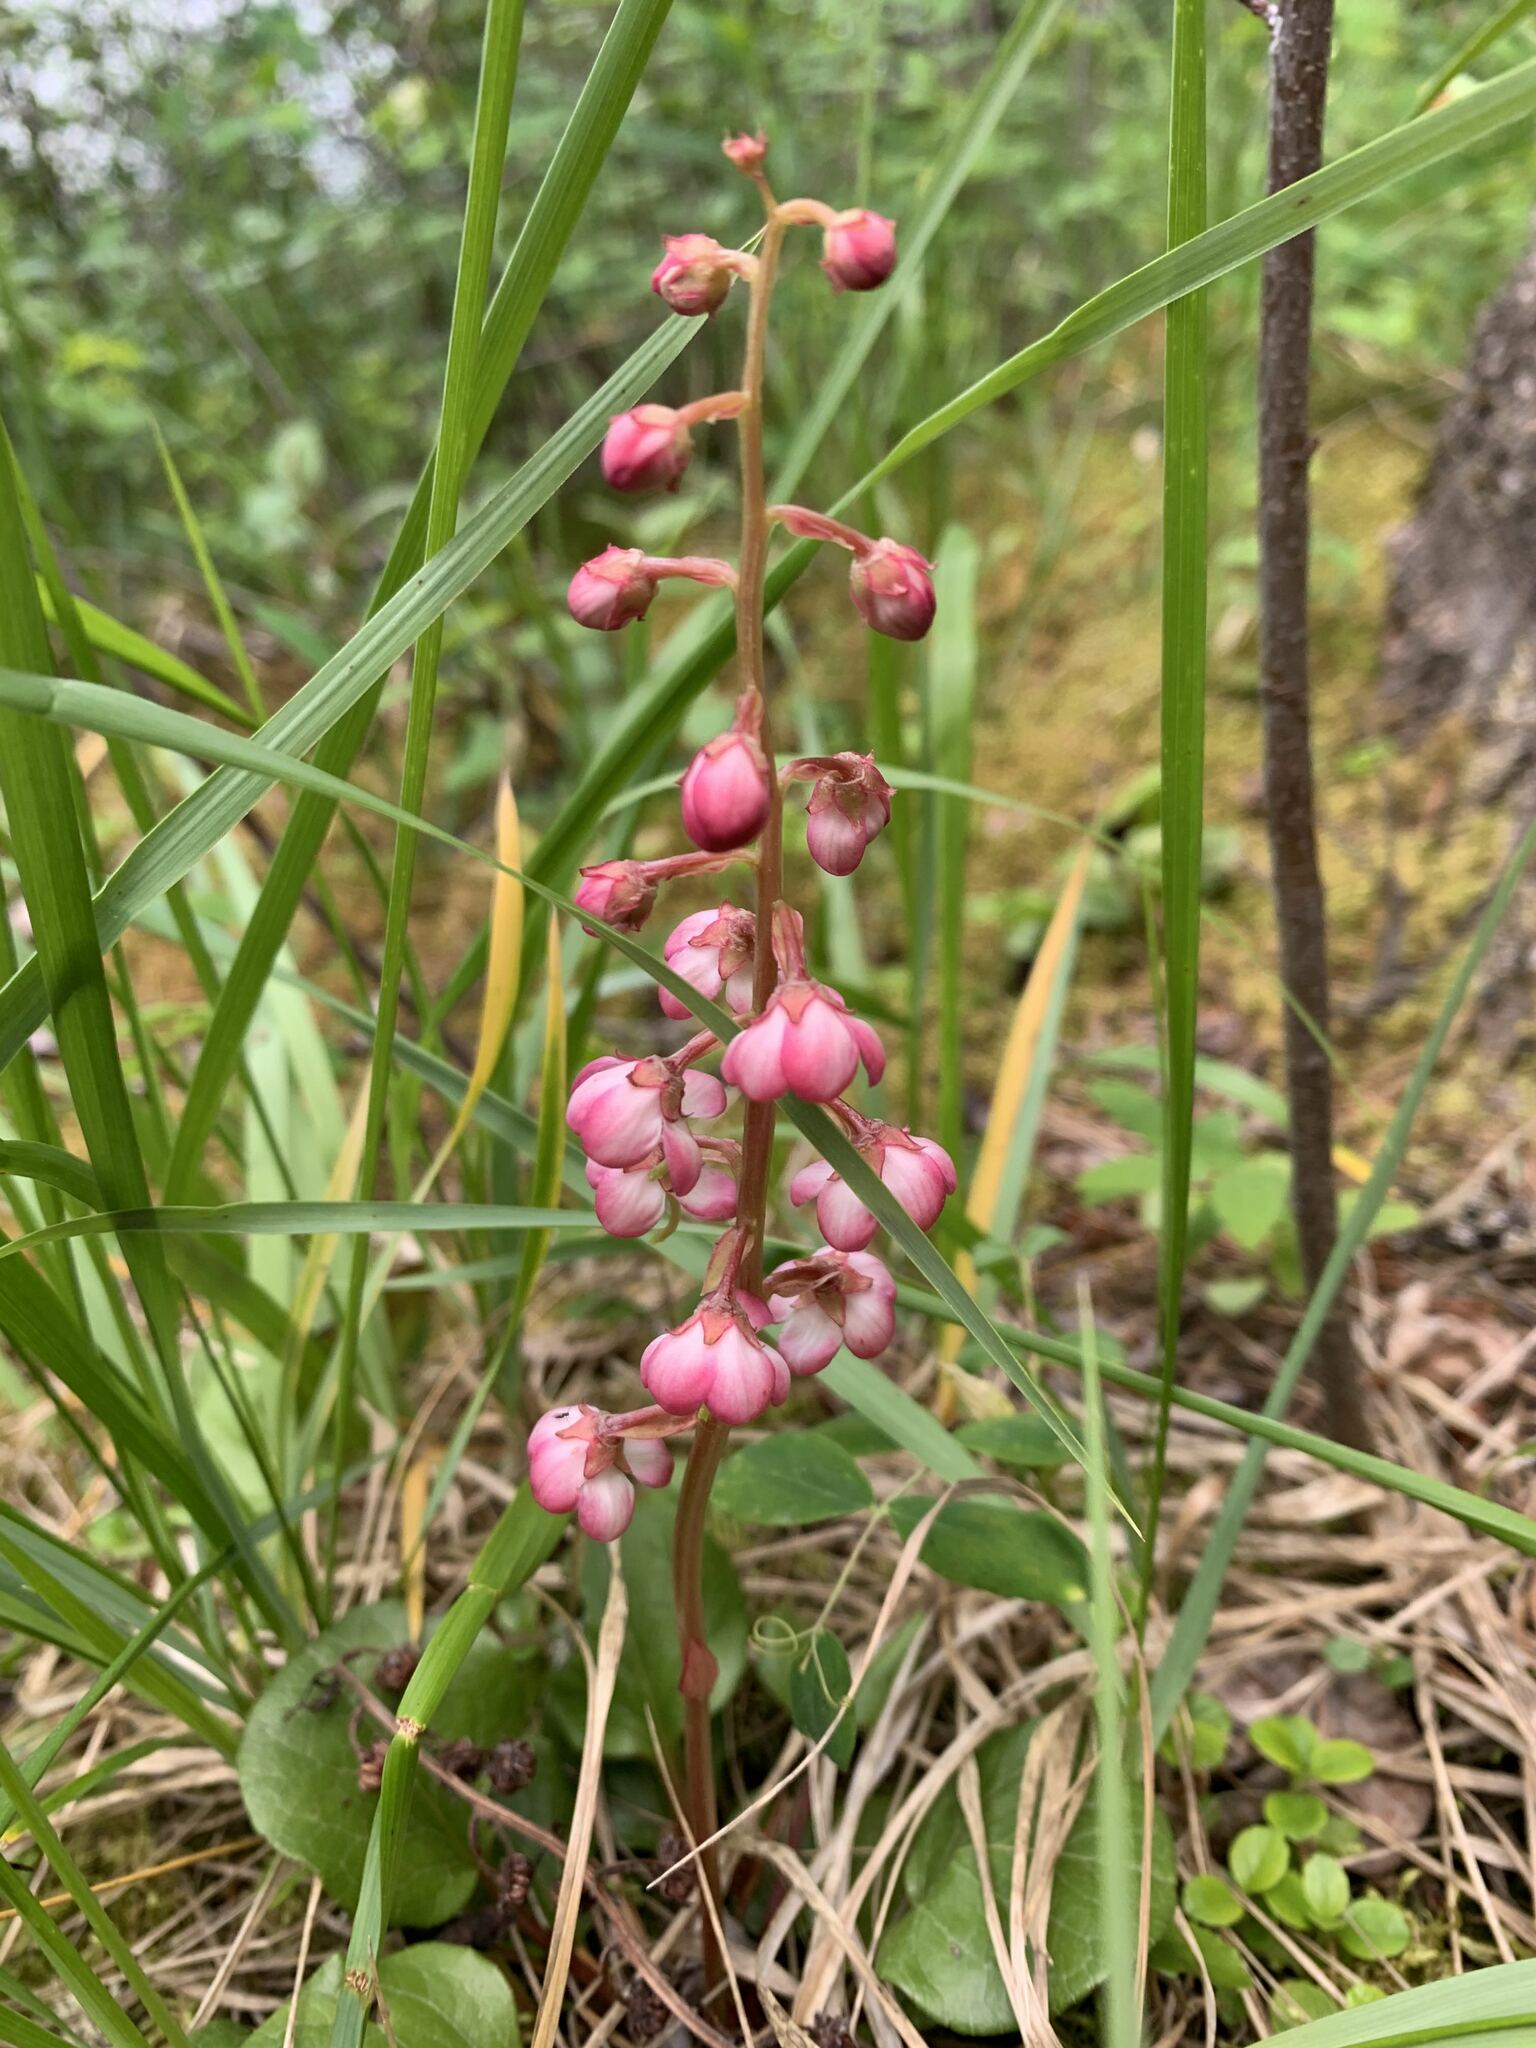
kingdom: Plantae
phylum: Tracheophyta
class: Magnoliopsida
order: Ericales
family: Ericaceae
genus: Pyrola
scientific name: Pyrola asarifolia
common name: Bog wintergreen
